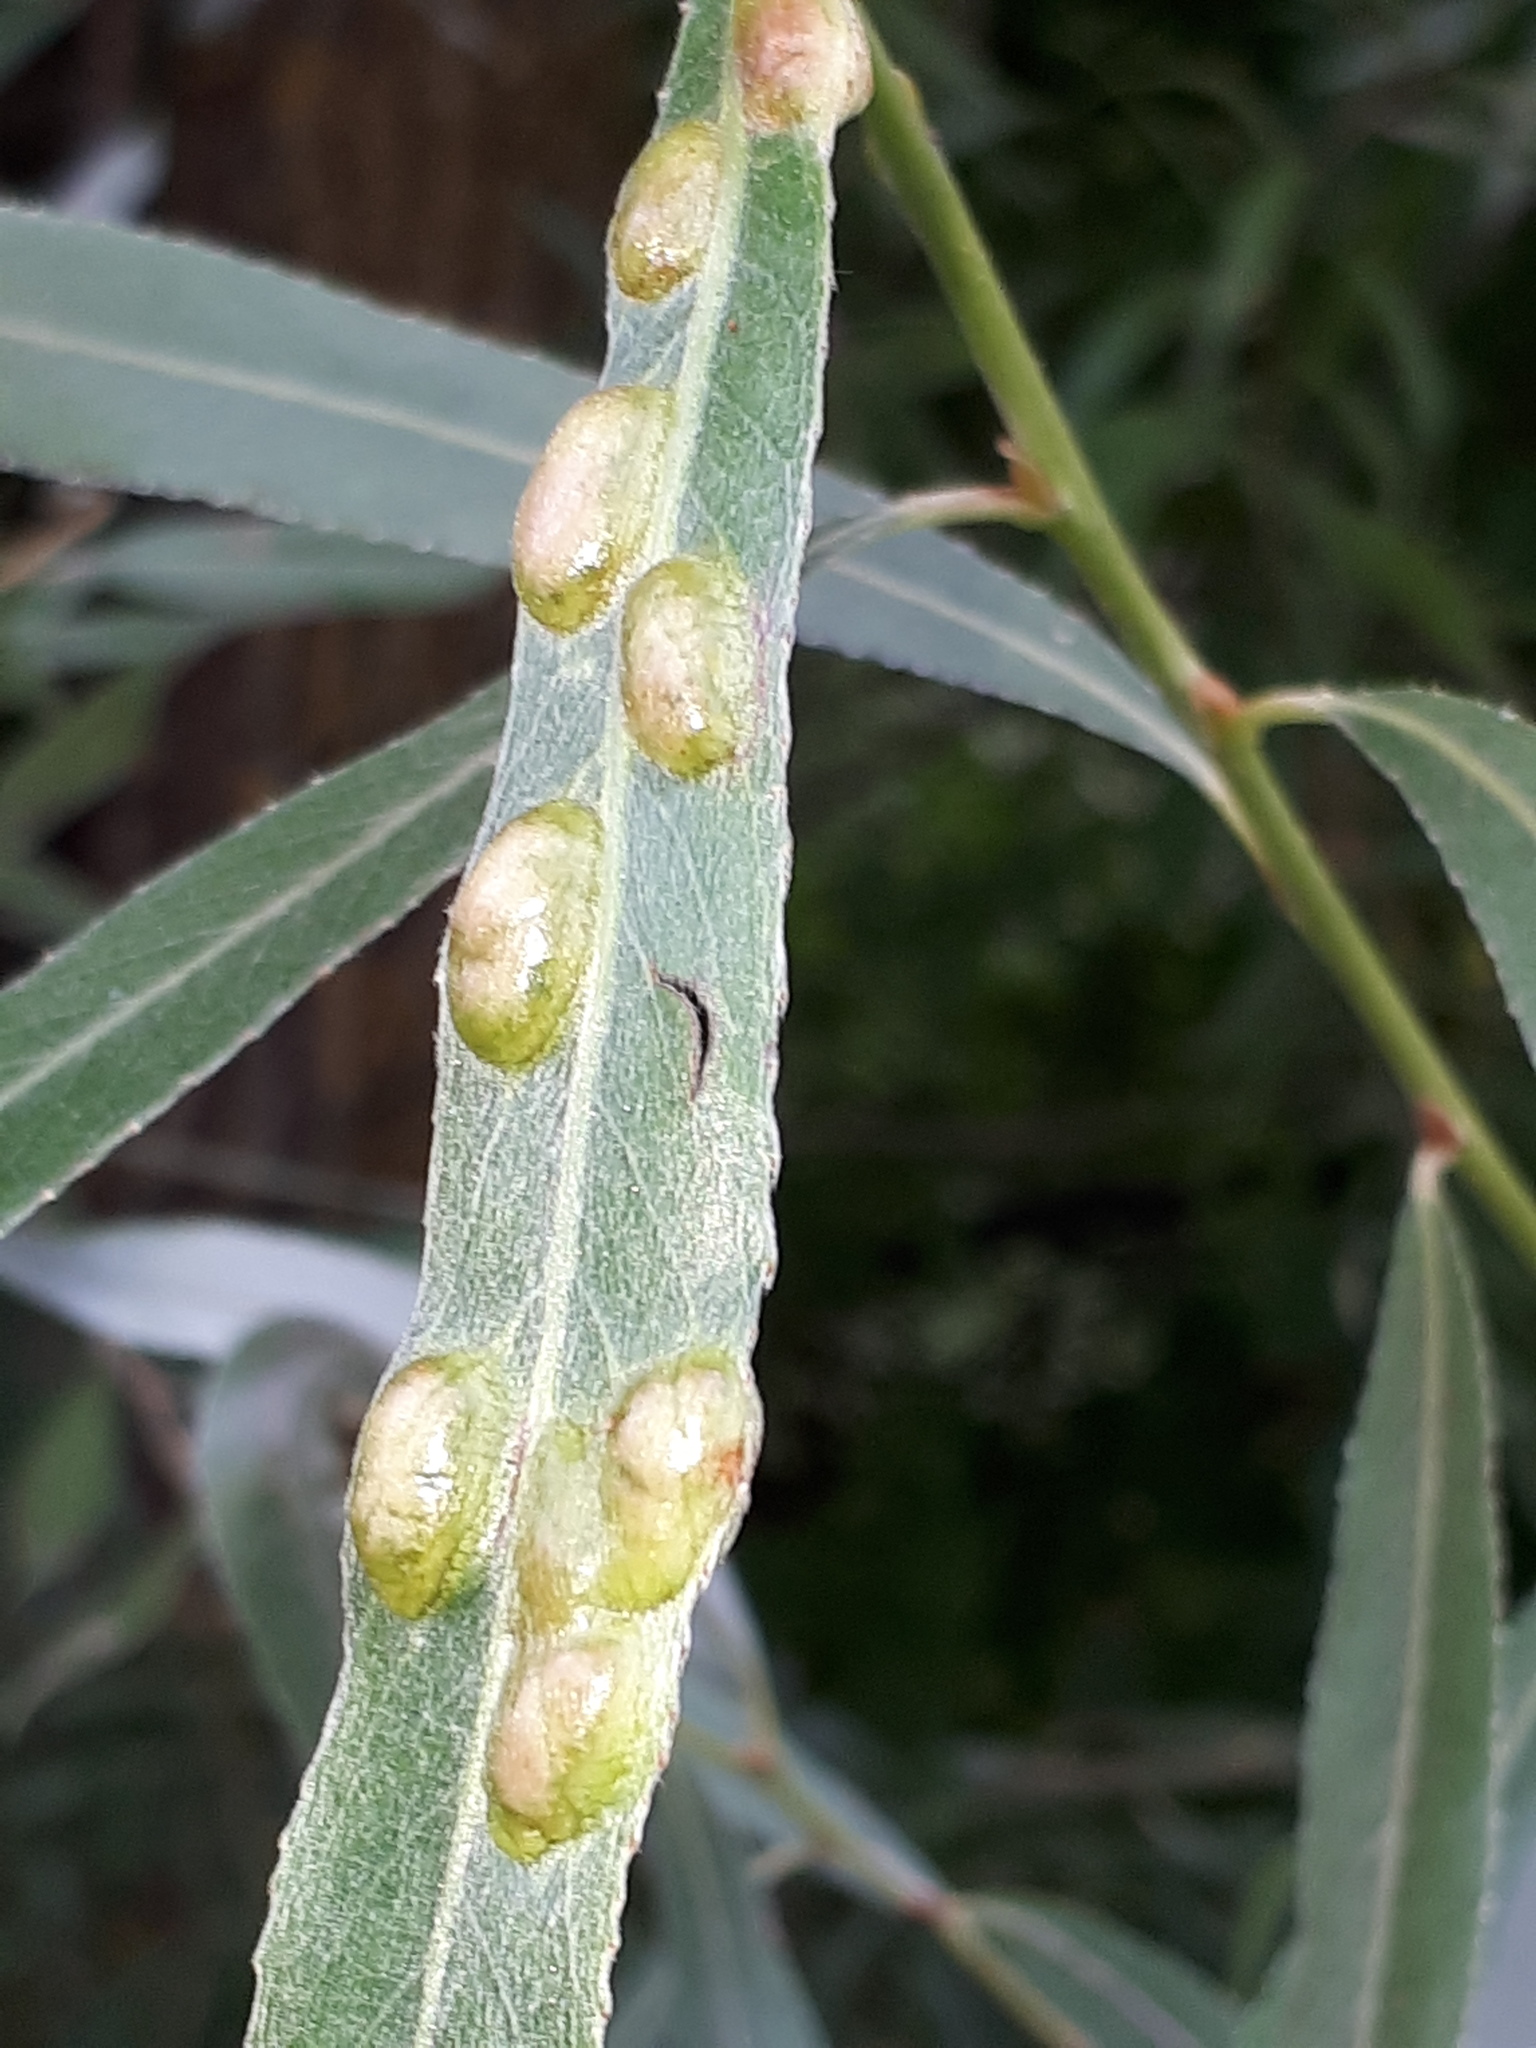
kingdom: Animalia
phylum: Arthropoda
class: Insecta
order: Hymenoptera
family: Tenthredinidae
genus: Pontania
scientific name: Pontania proxima
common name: Common sawfly
